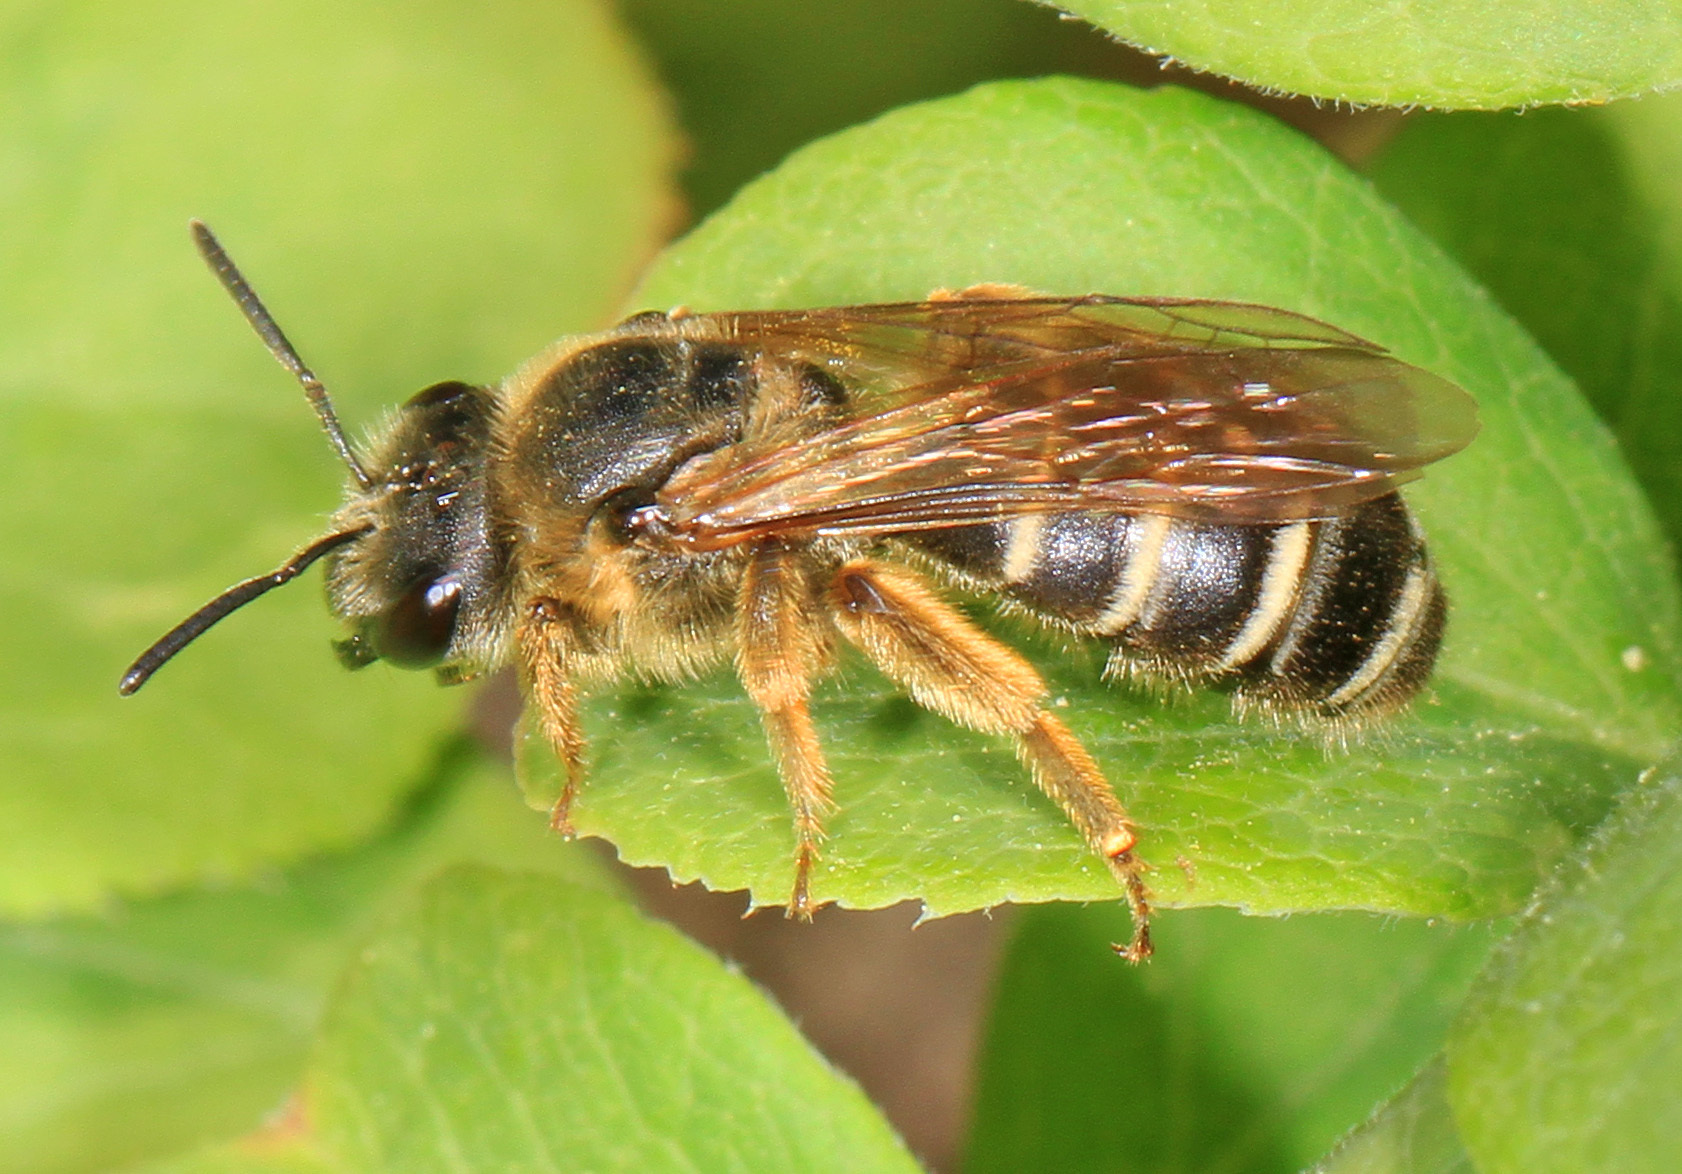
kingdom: Animalia
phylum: Arthropoda
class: Insecta
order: Hymenoptera
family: Halictidae
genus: Halictus
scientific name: Halictus rubicundus
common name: Orange-legged furrow bee
